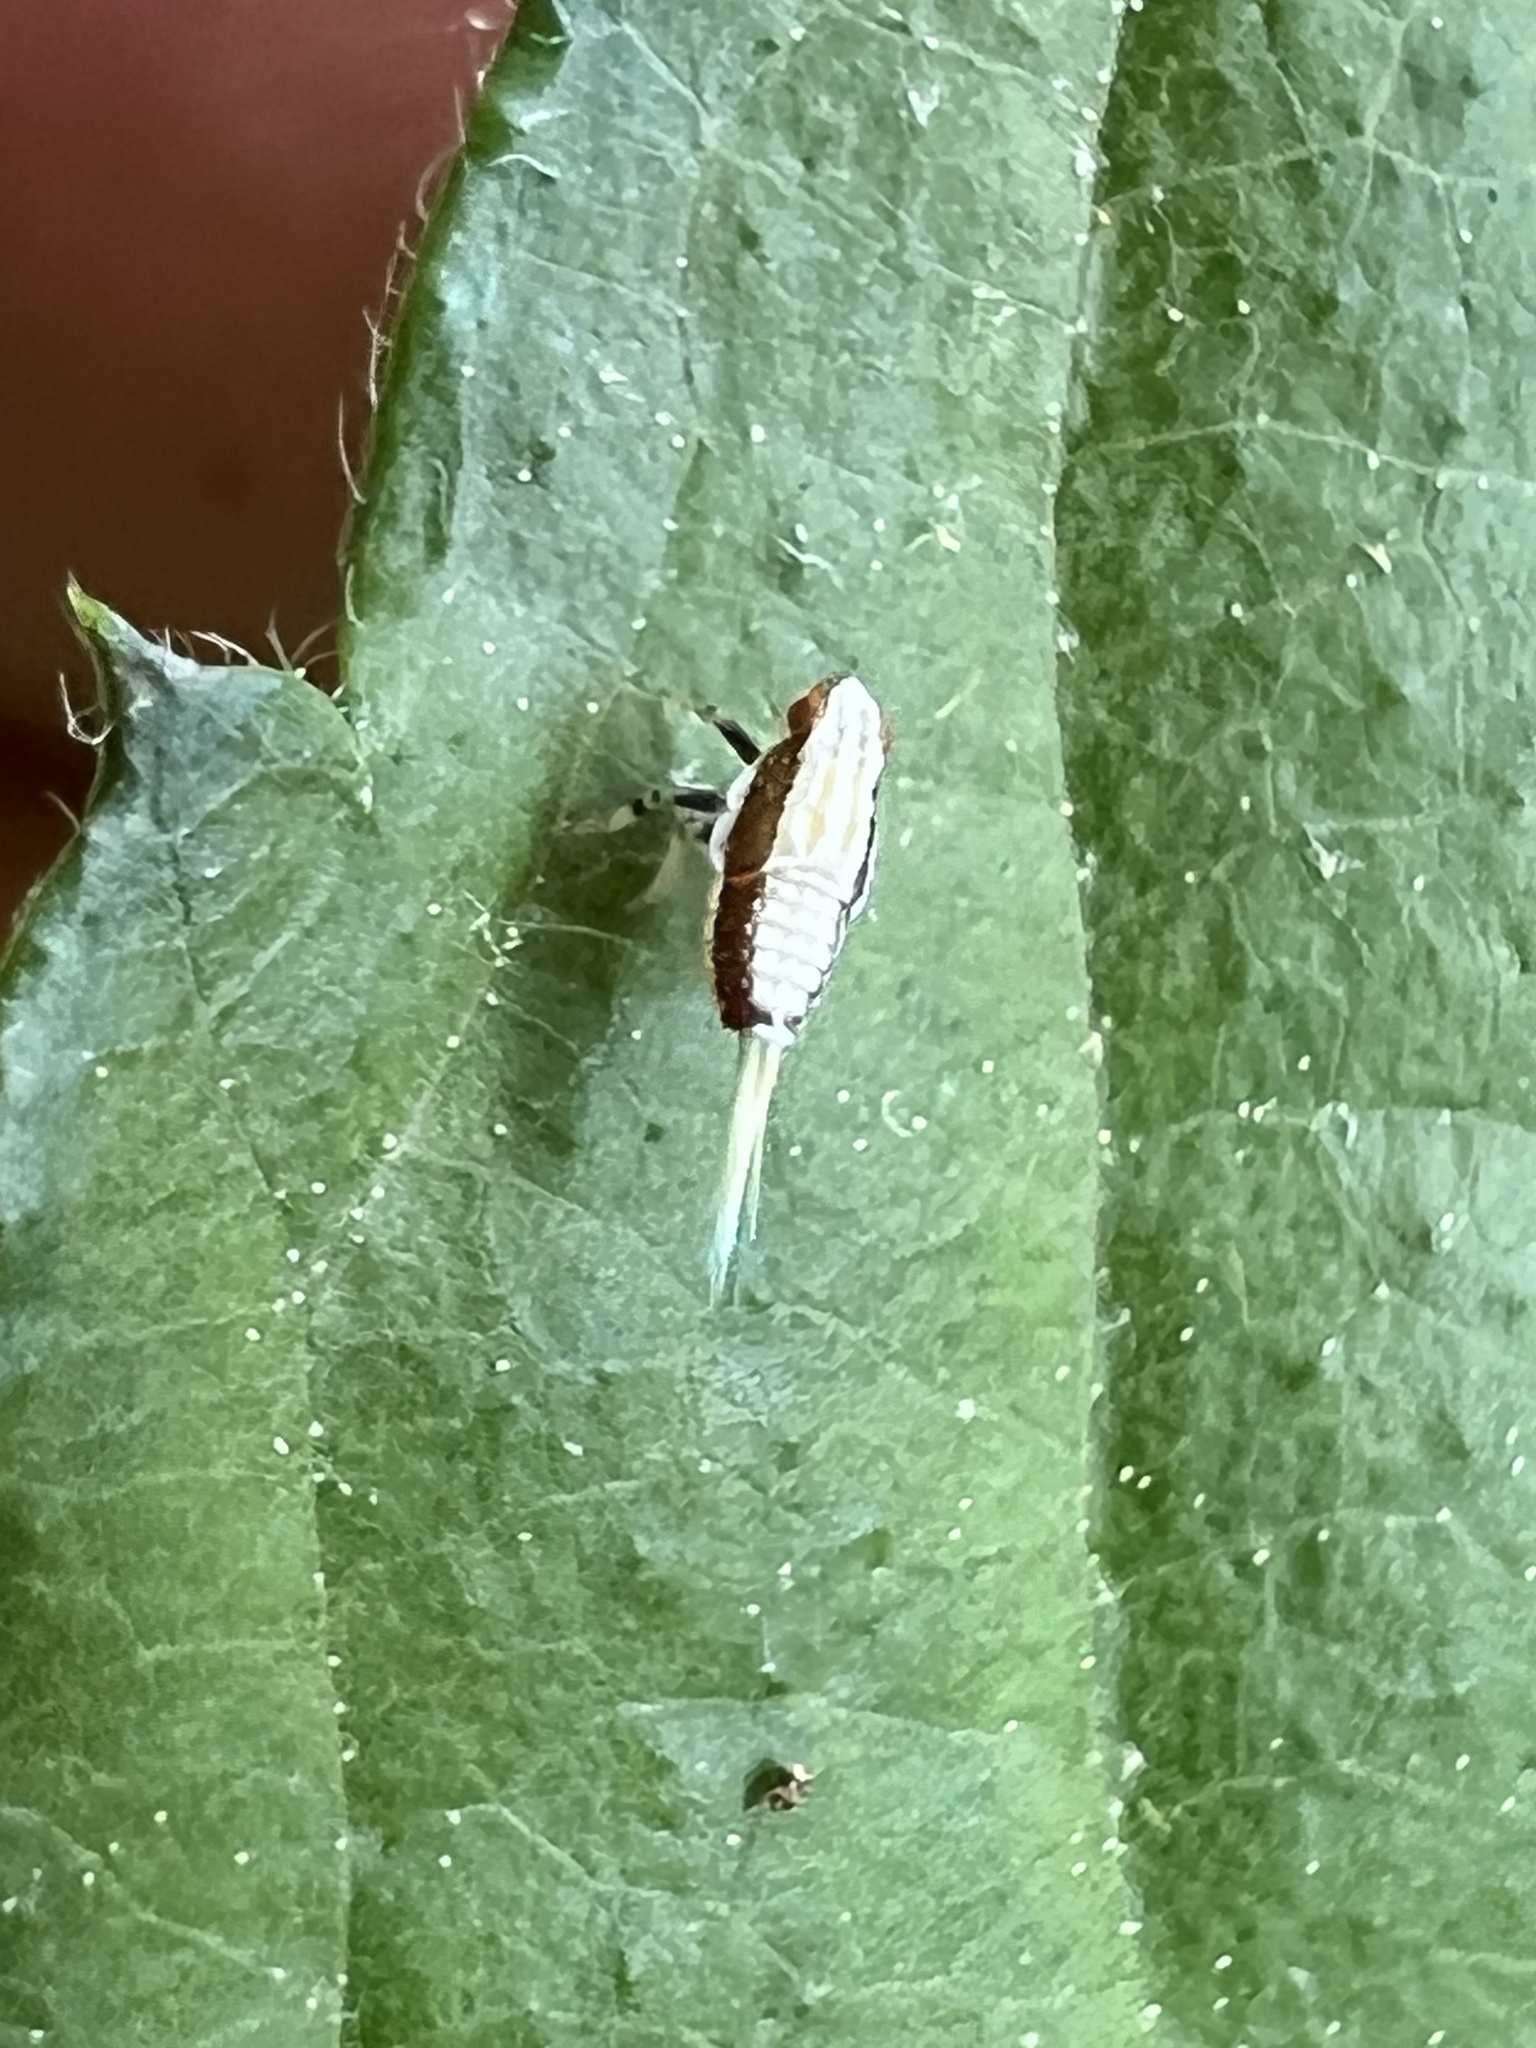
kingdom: Animalia
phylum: Arthropoda
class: Insecta
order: Hemiptera
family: Issidae
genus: Thionia
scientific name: Thionia bullata
